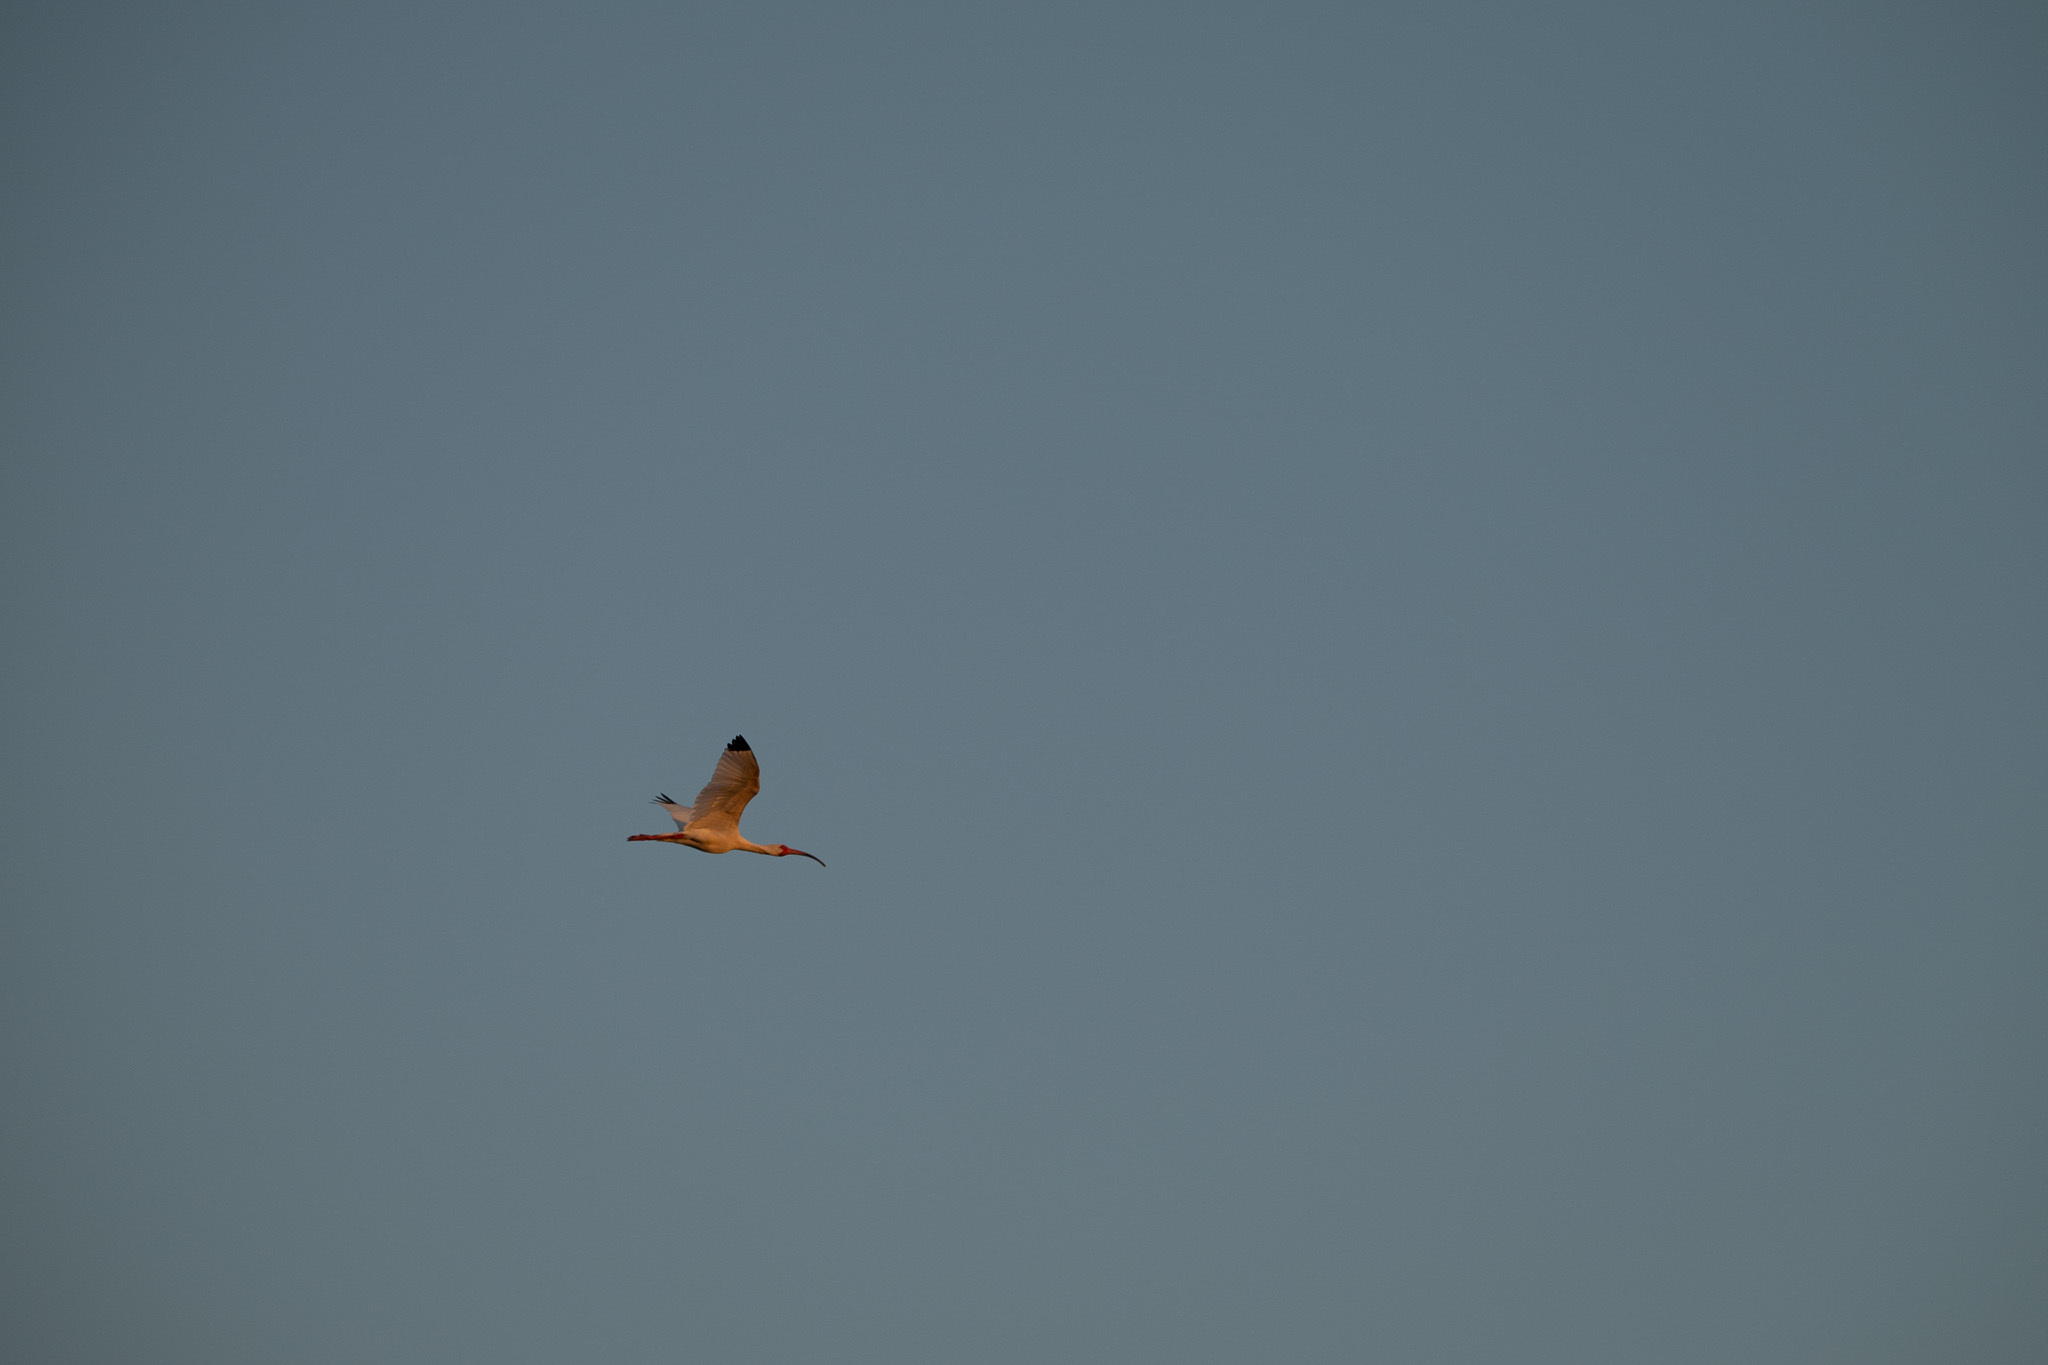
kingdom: Animalia
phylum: Chordata
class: Aves
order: Pelecaniformes
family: Threskiornithidae
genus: Eudocimus
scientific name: Eudocimus albus
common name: White ibis
